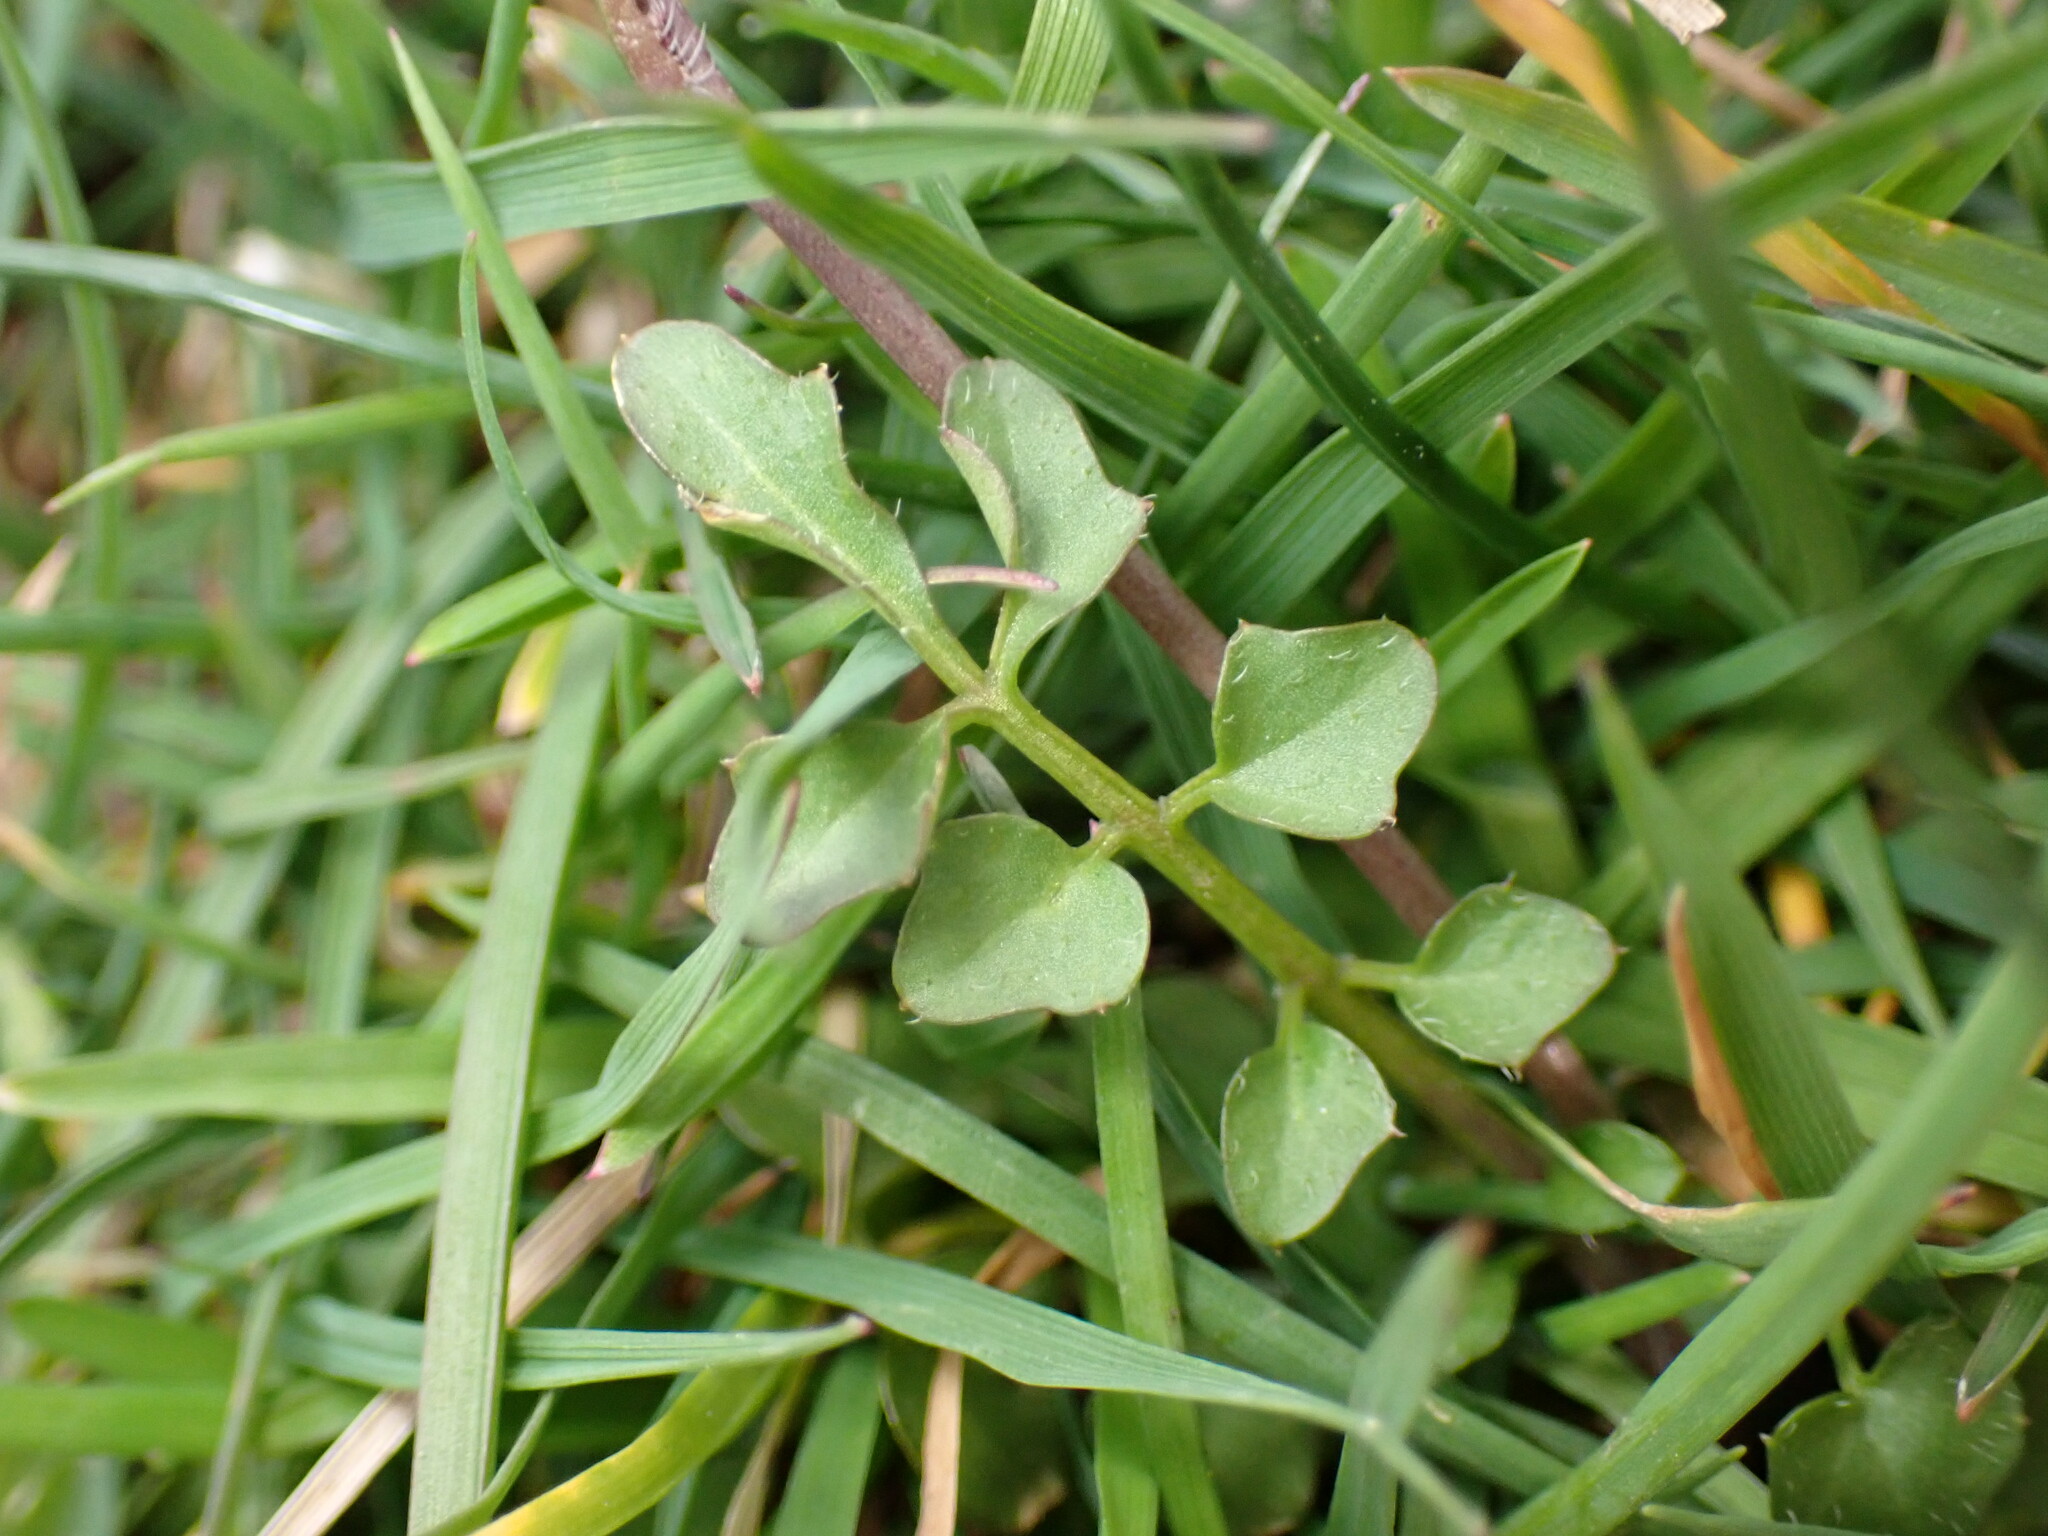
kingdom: Plantae
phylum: Tracheophyta
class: Magnoliopsida
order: Brassicales
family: Brassicaceae
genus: Cardamine
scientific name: Cardamine hirsuta
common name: Hairy bittercress
